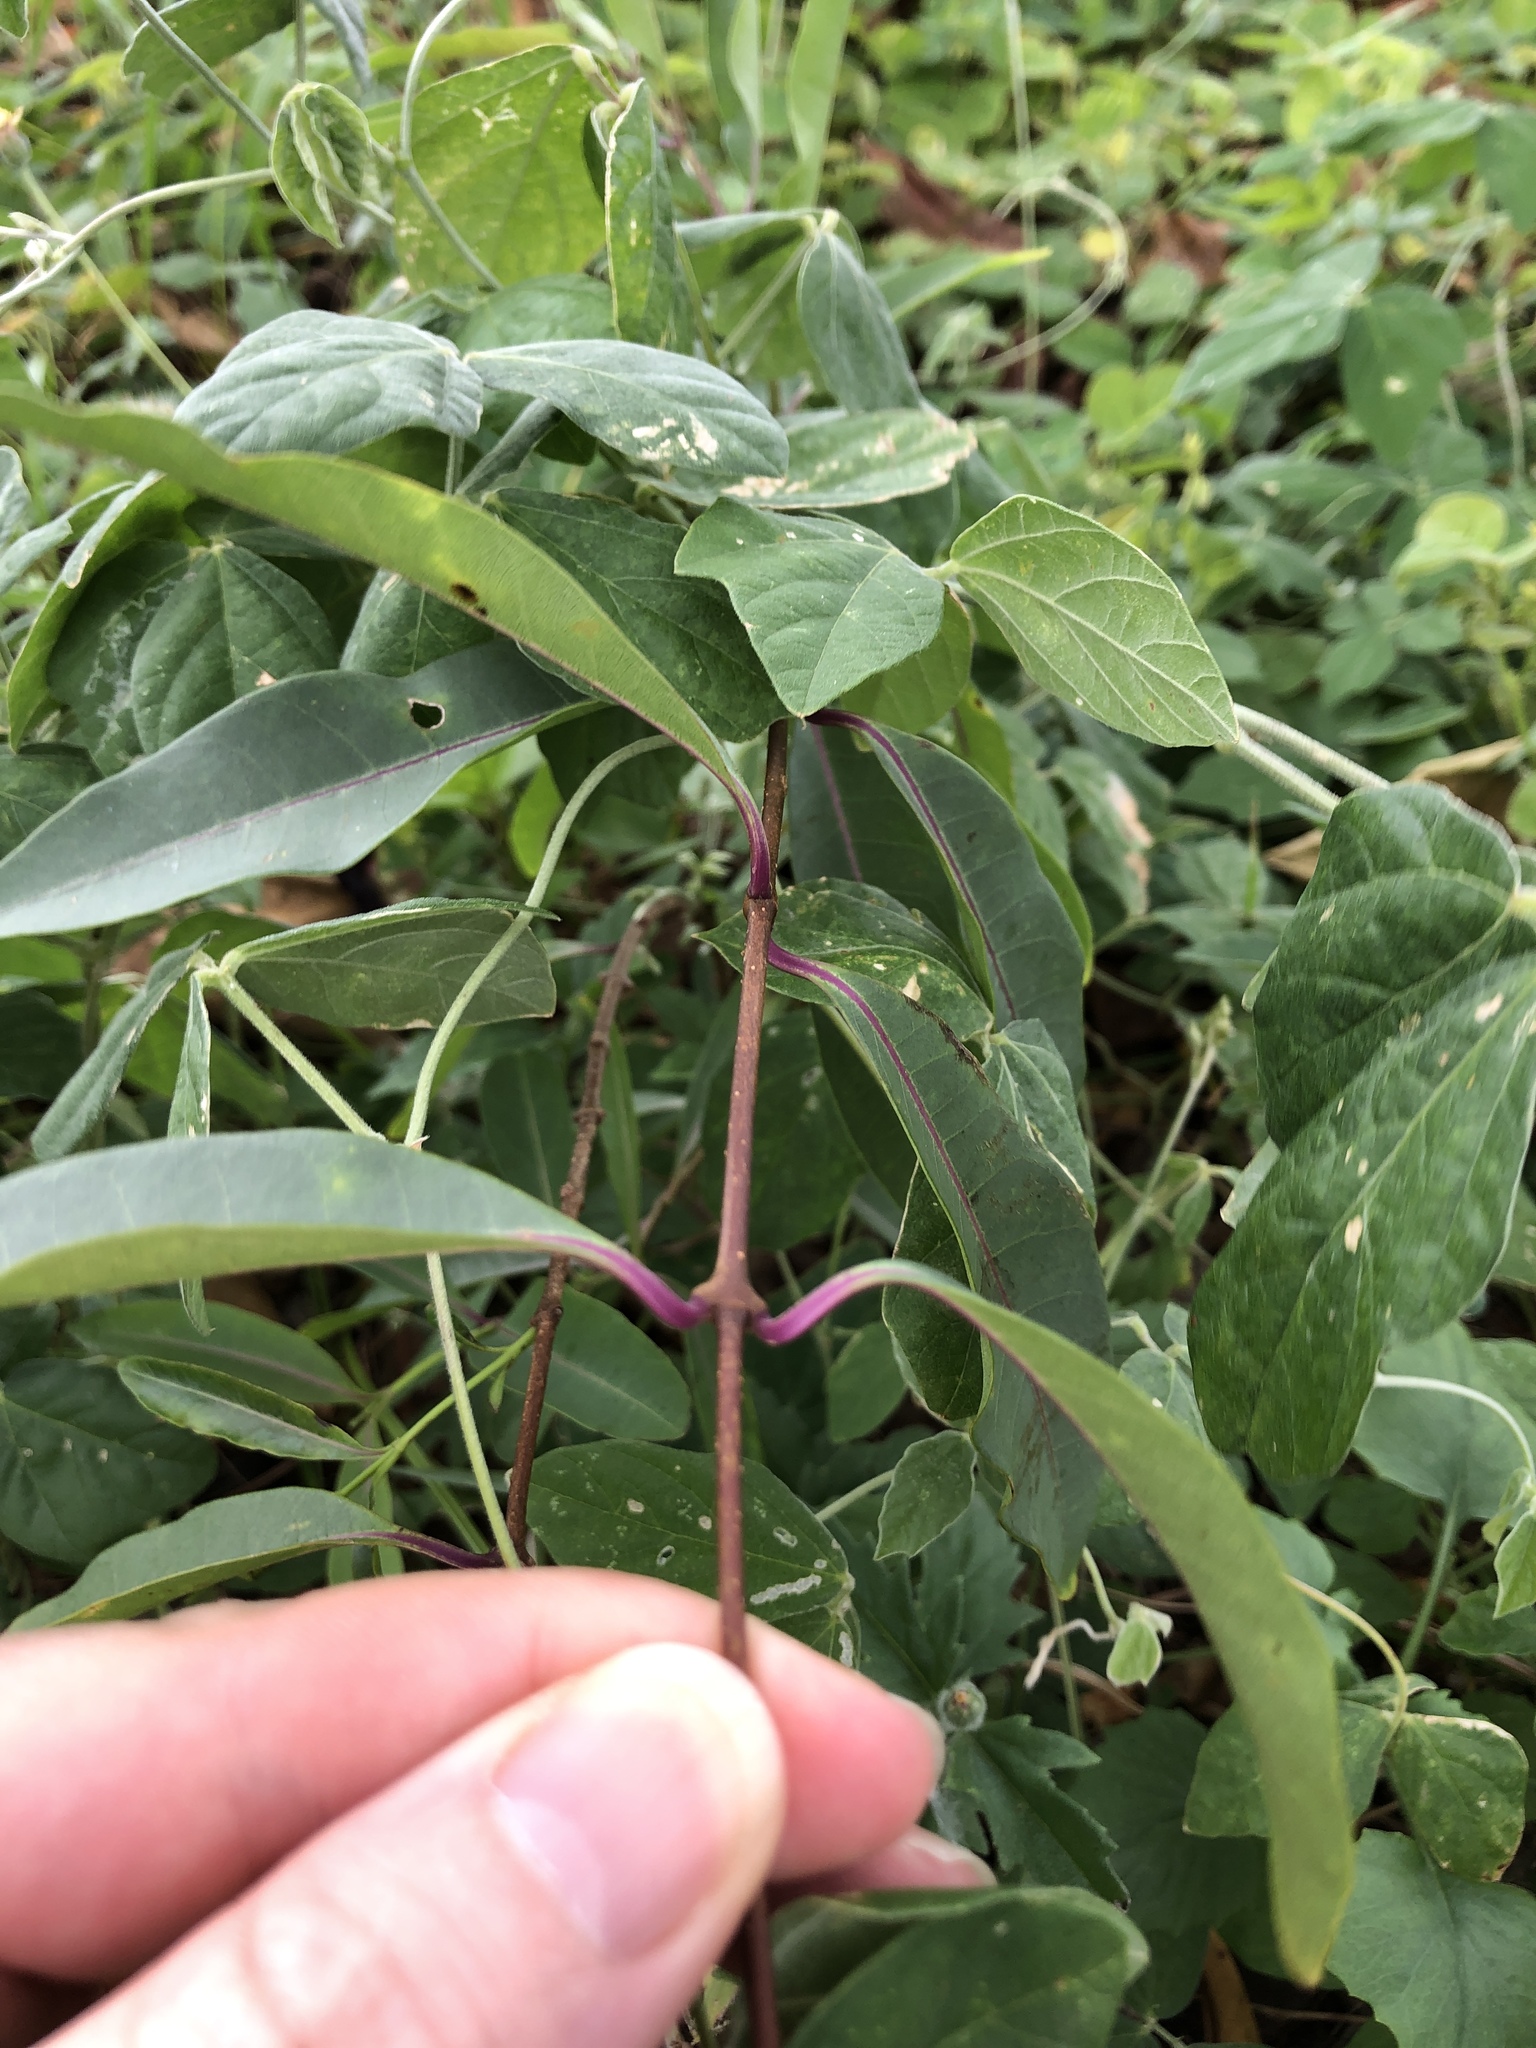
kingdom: Plantae
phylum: Tracheophyta
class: Magnoliopsida
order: Gentianales
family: Apocynaceae
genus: Cryptostegia
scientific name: Cryptostegia grandiflora
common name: Palay rubbervine
